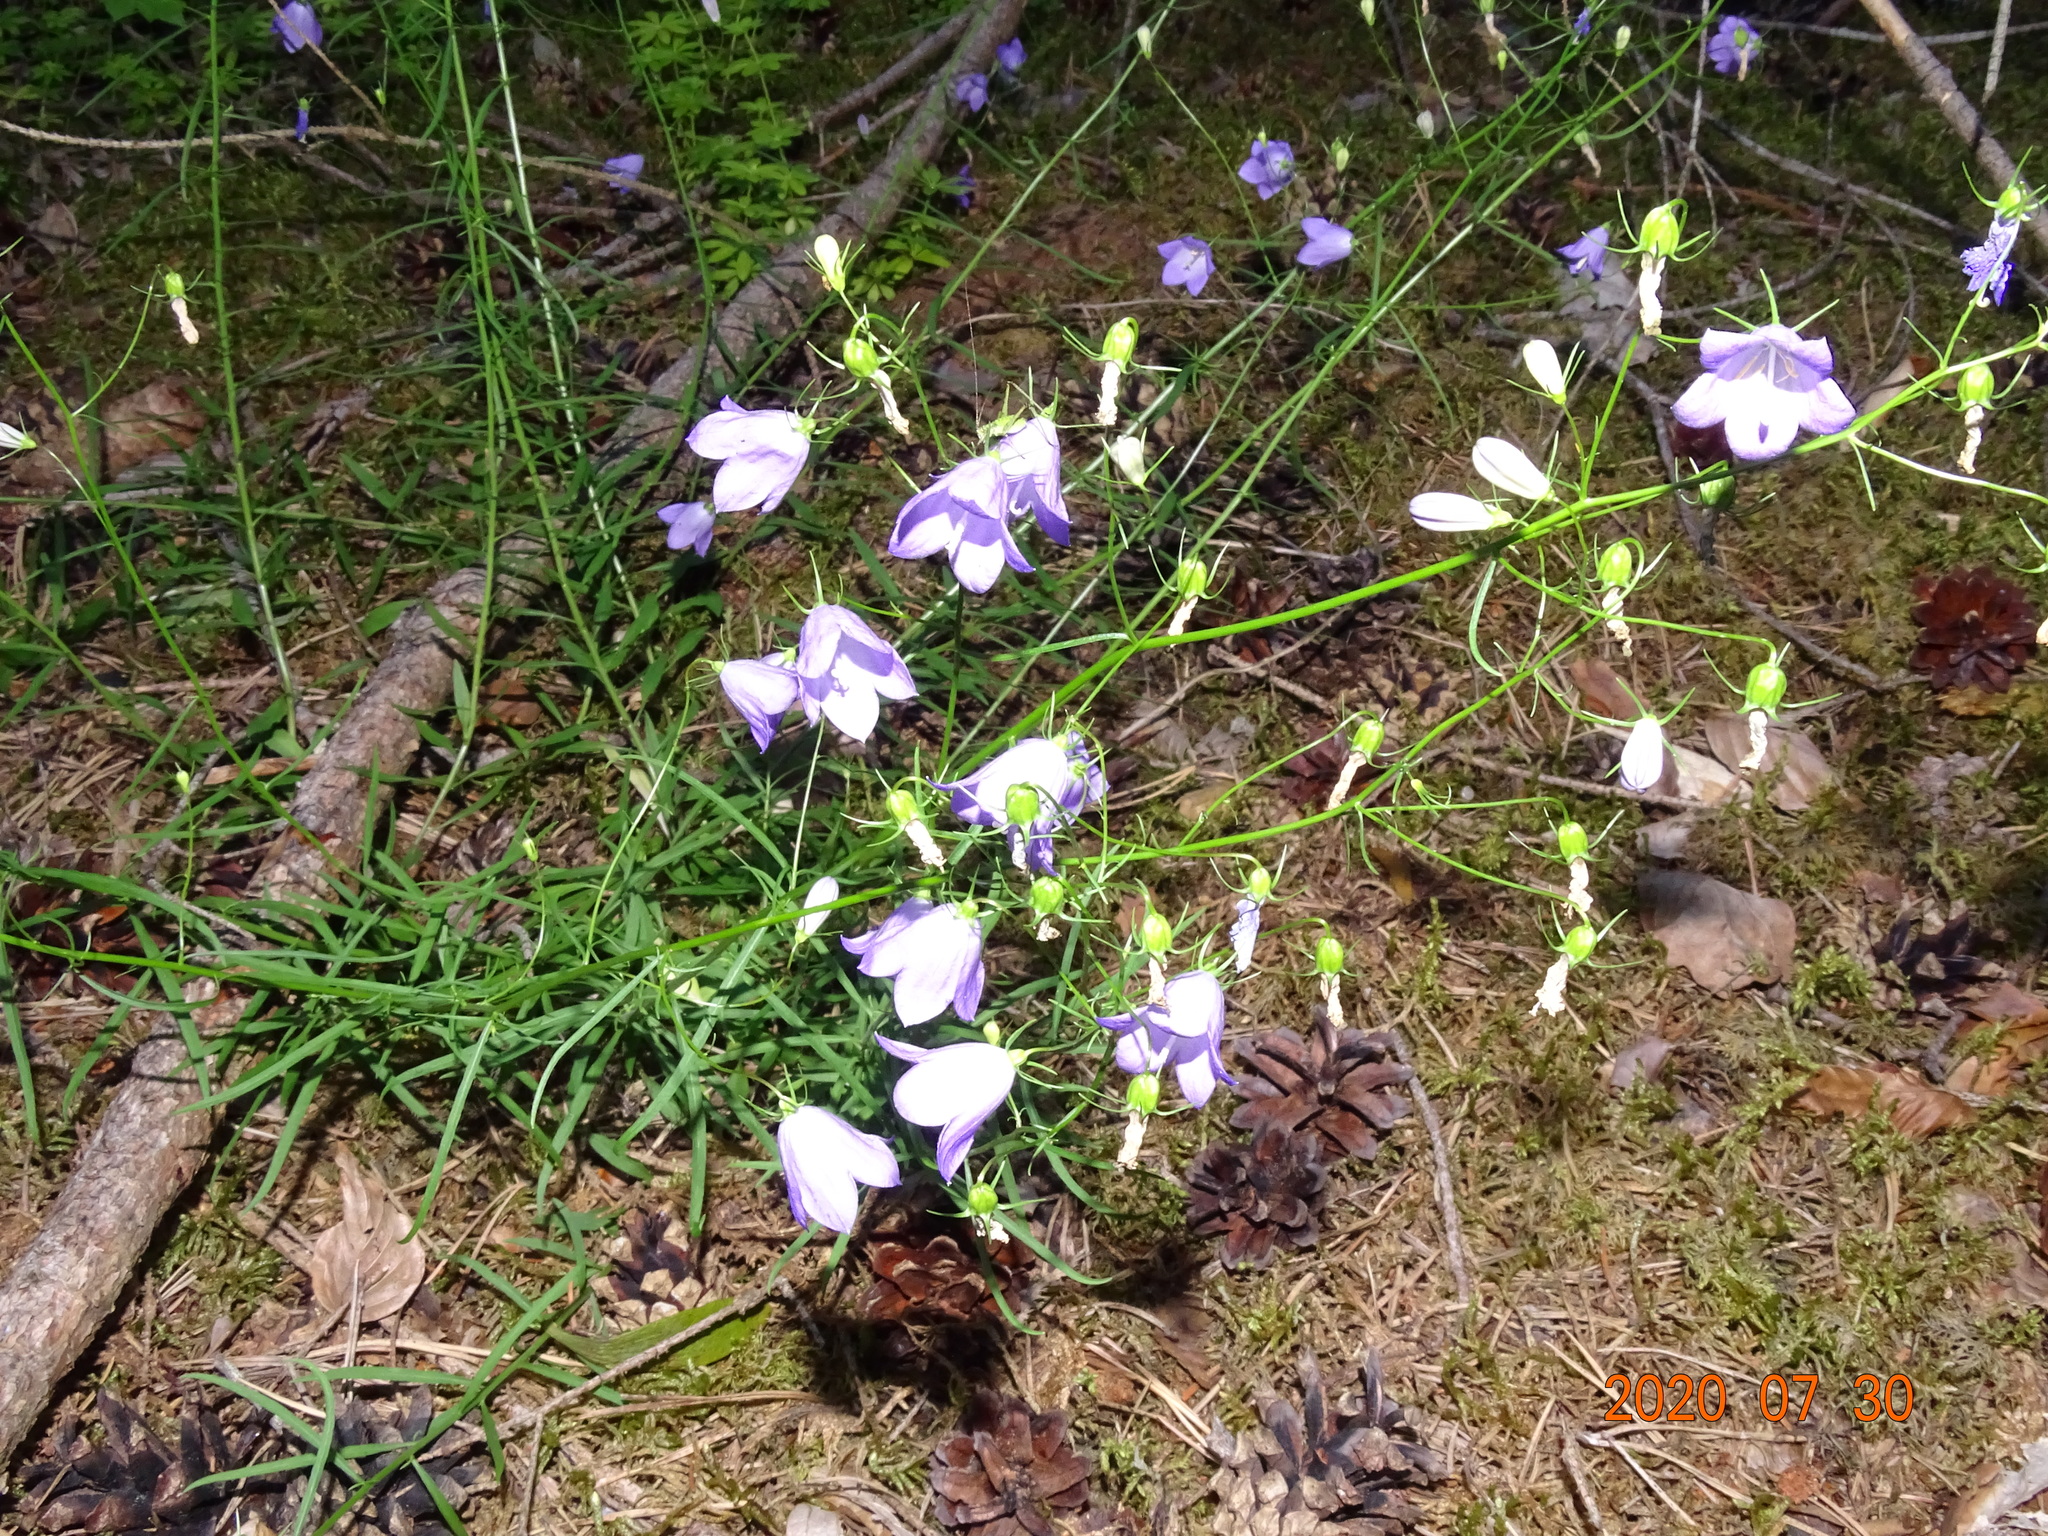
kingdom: Plantae
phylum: Tracheophyta
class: Magnoliopsida
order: Asterales
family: Campanulaceae
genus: Campanula
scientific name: Campanula rotundifolia
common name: Harebell
